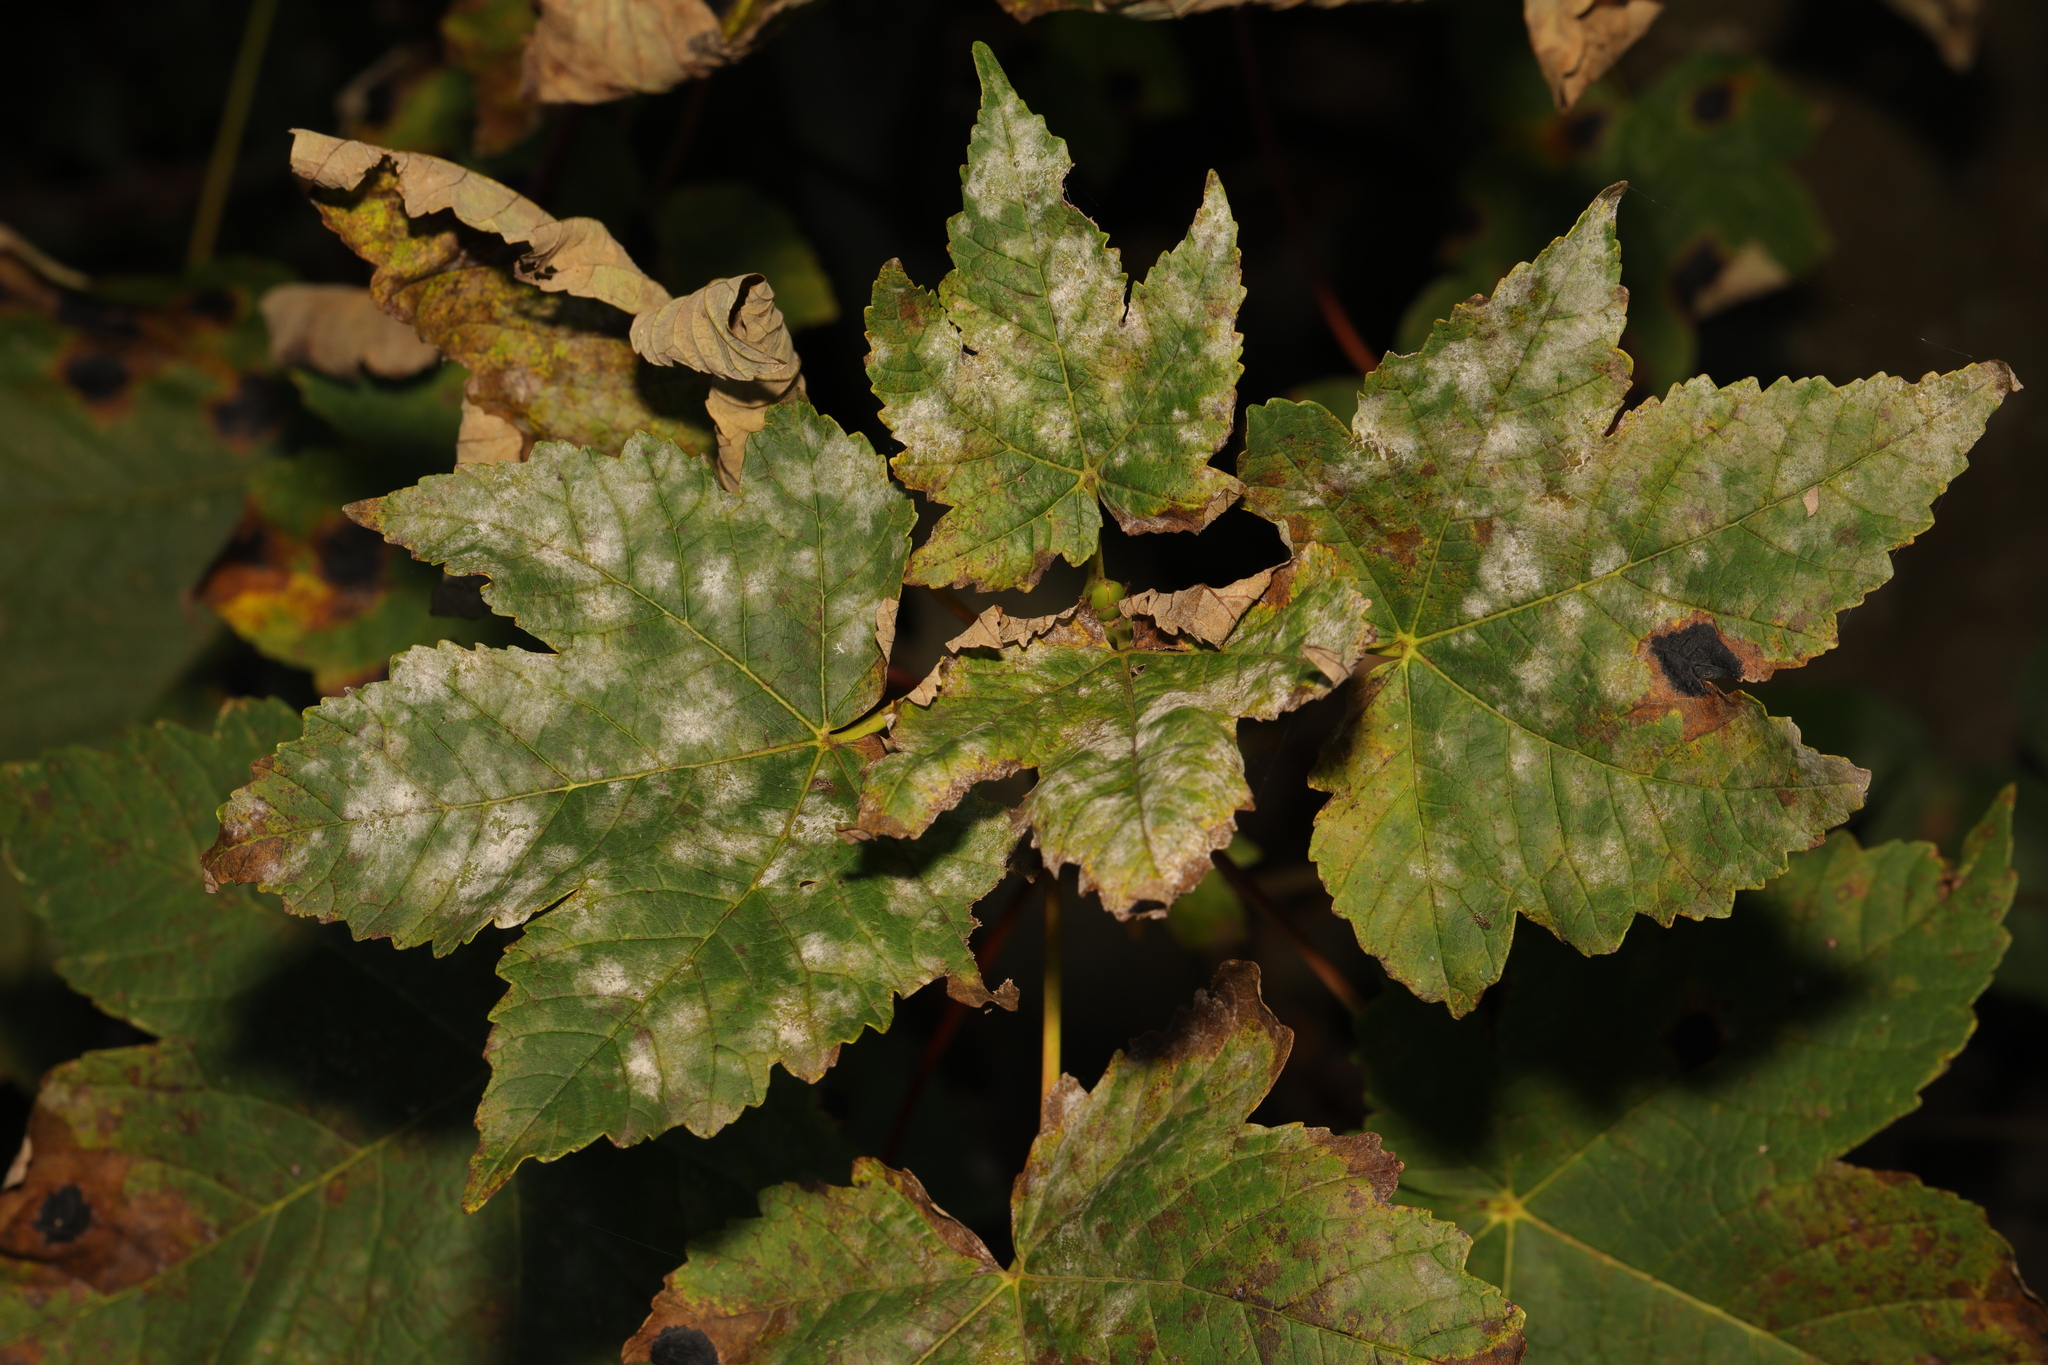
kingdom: Fungi
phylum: Ascomycota
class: Leotiomycetes
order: Helotiales
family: Erysiphaceae
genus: Sawadaea
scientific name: Sawadaea bicornis
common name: Maple mildew
